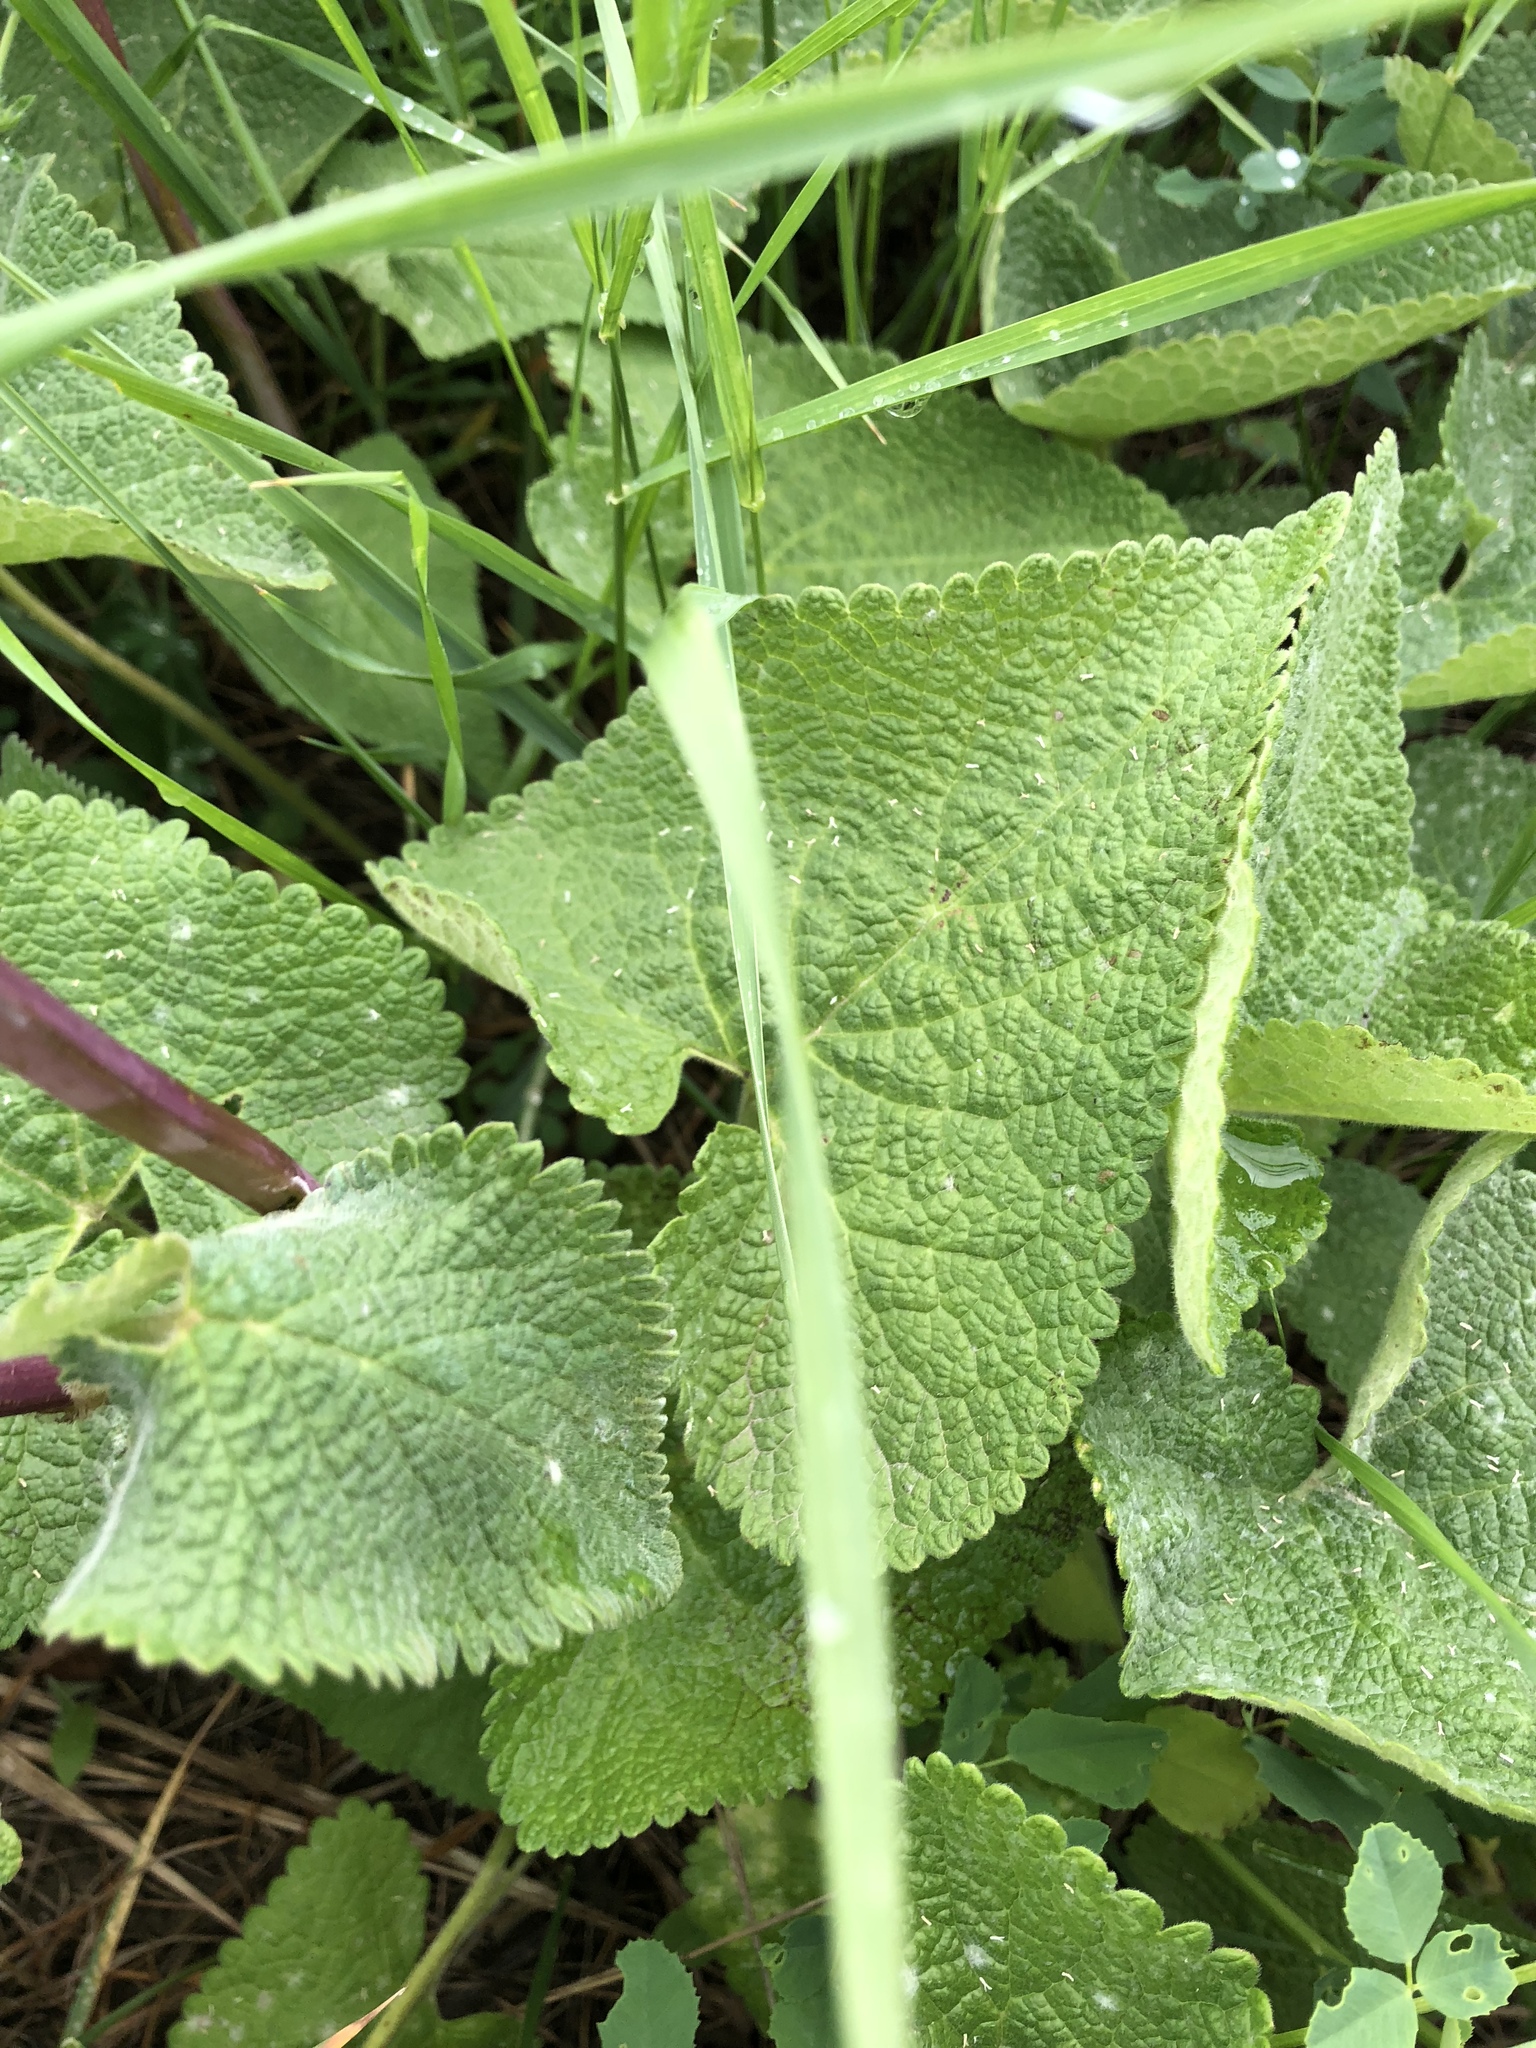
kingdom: Plantae
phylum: Tracheophyta
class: Magnoliopsida
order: Lamiales
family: Lamiaceae
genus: Phlomoides
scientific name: Phlomoides tuberosa
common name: Tuberous jerusalem sage
